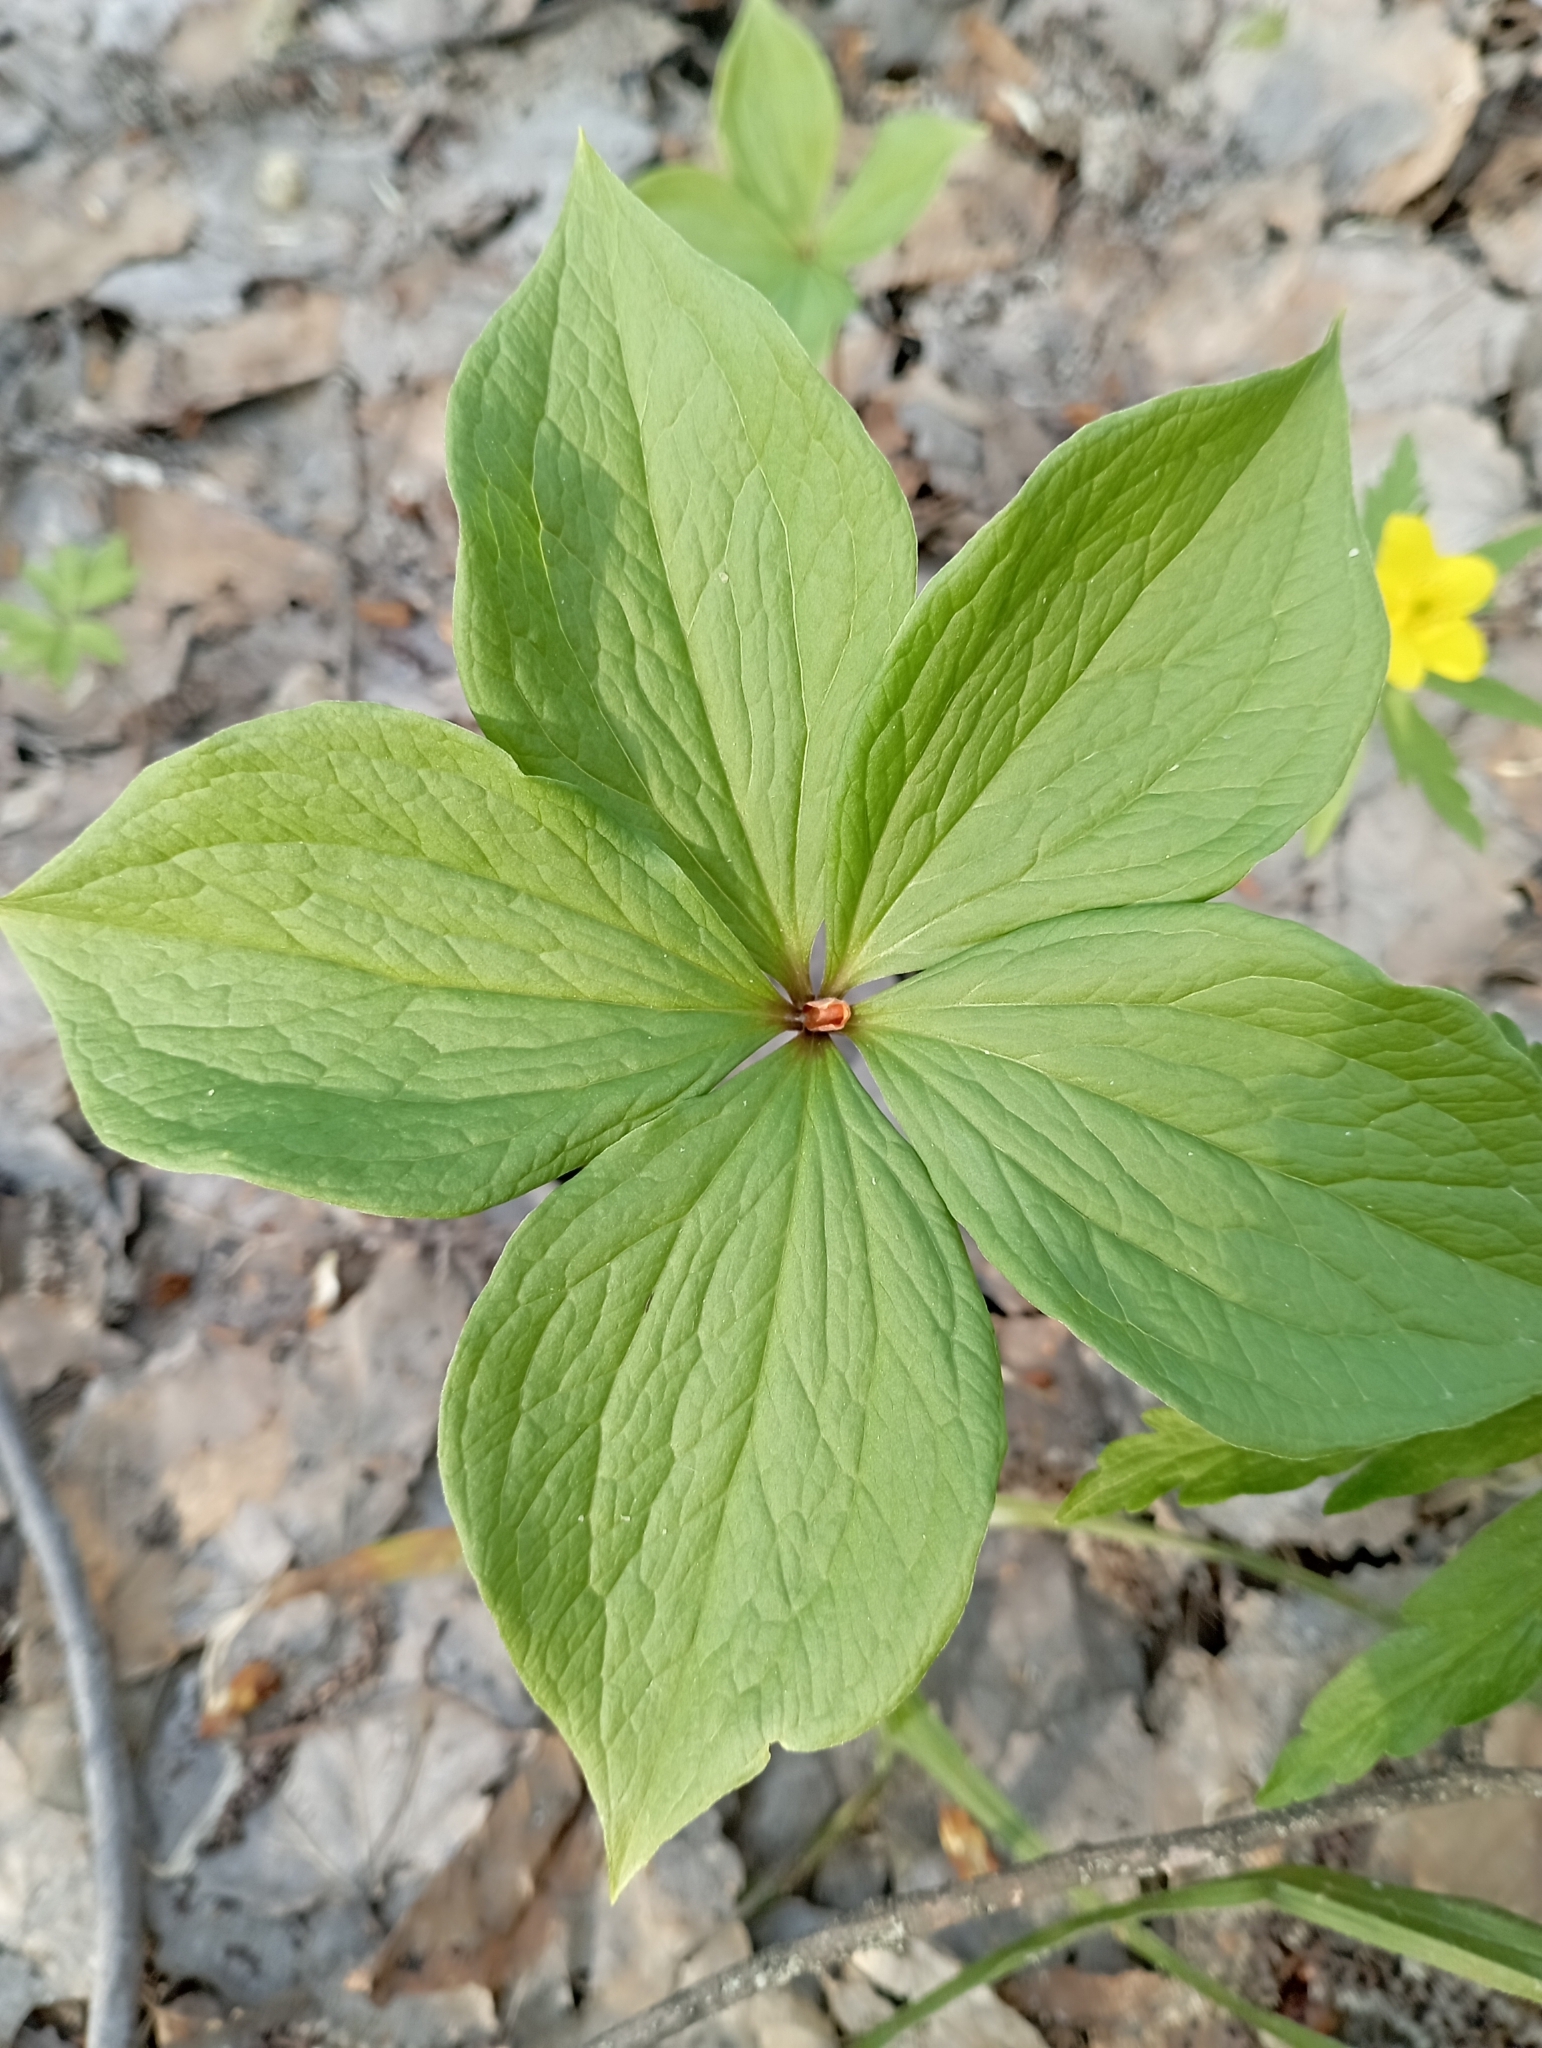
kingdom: Plantae
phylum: Tracheophyta
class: Liliopsida
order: Liliales
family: Melanthiaceae
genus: Paris
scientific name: Paris quadrifolia
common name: Herb-paris
